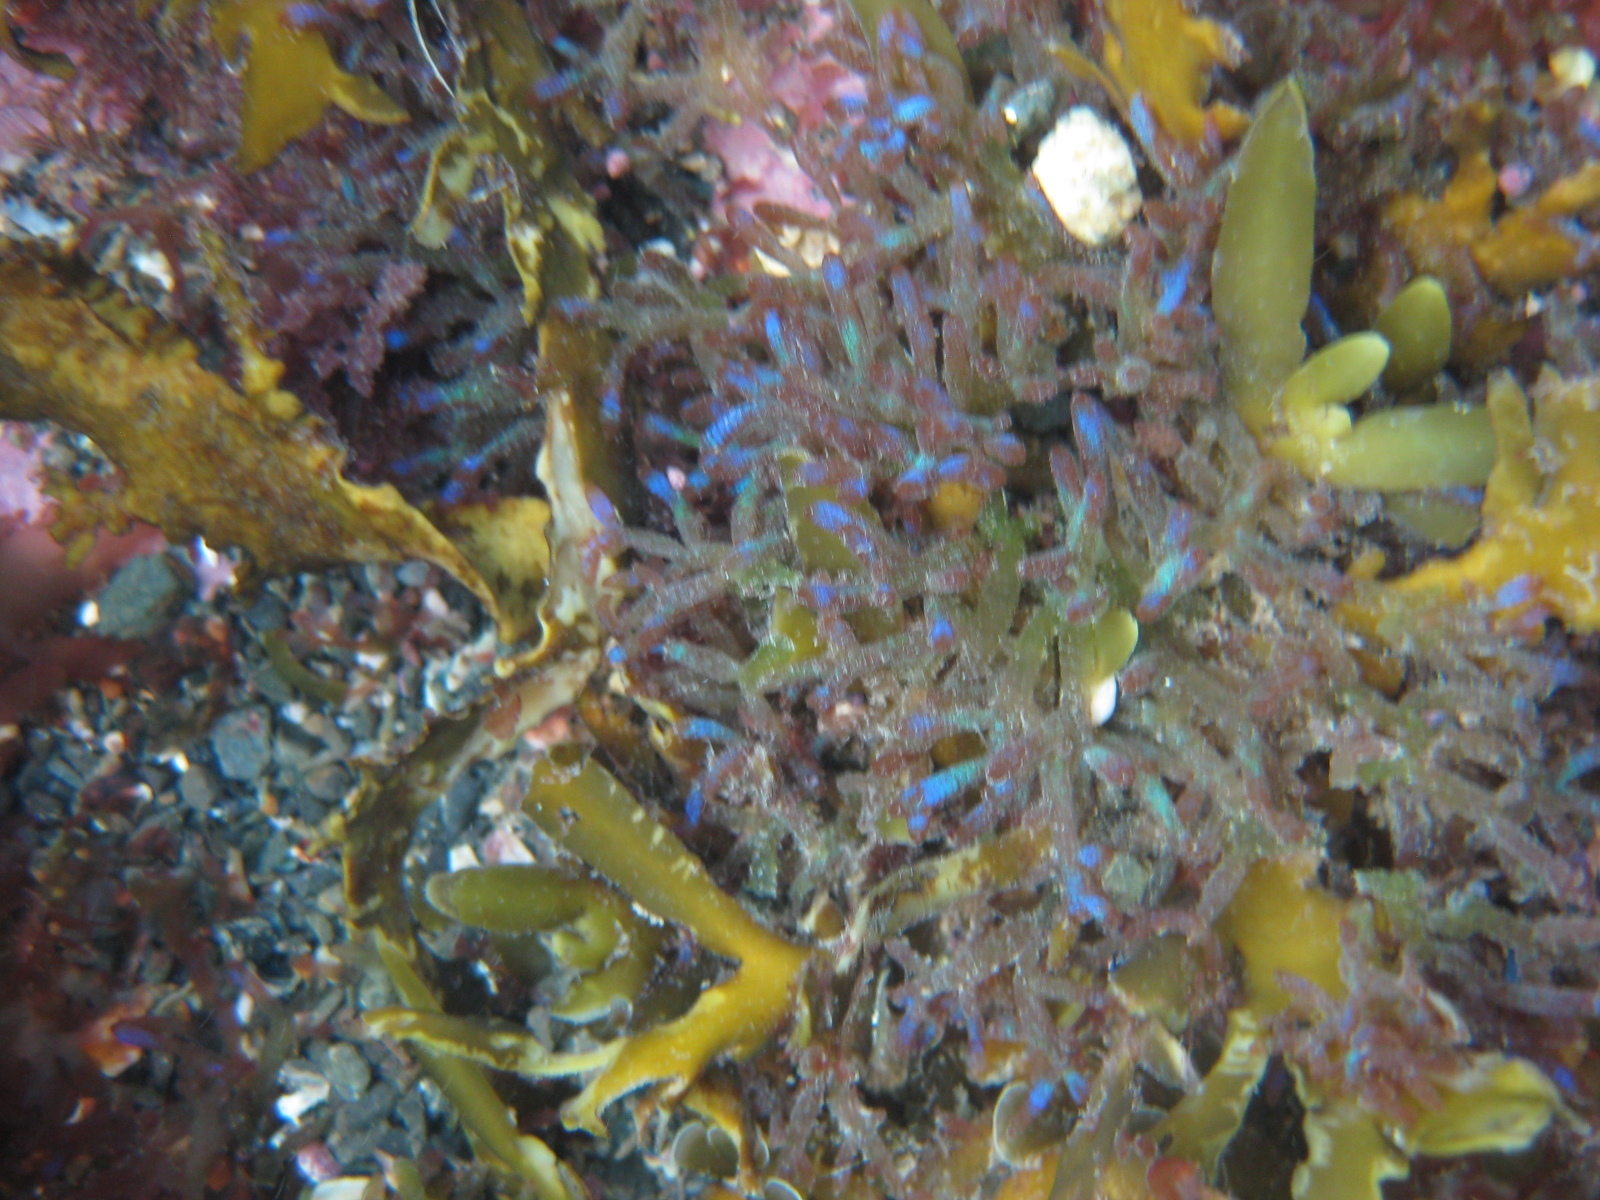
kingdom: Plantae
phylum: Rhodophyta
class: Florideophyceae
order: Rhodymeniales
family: Champiaceae
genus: Champia
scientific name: Champia laingii
